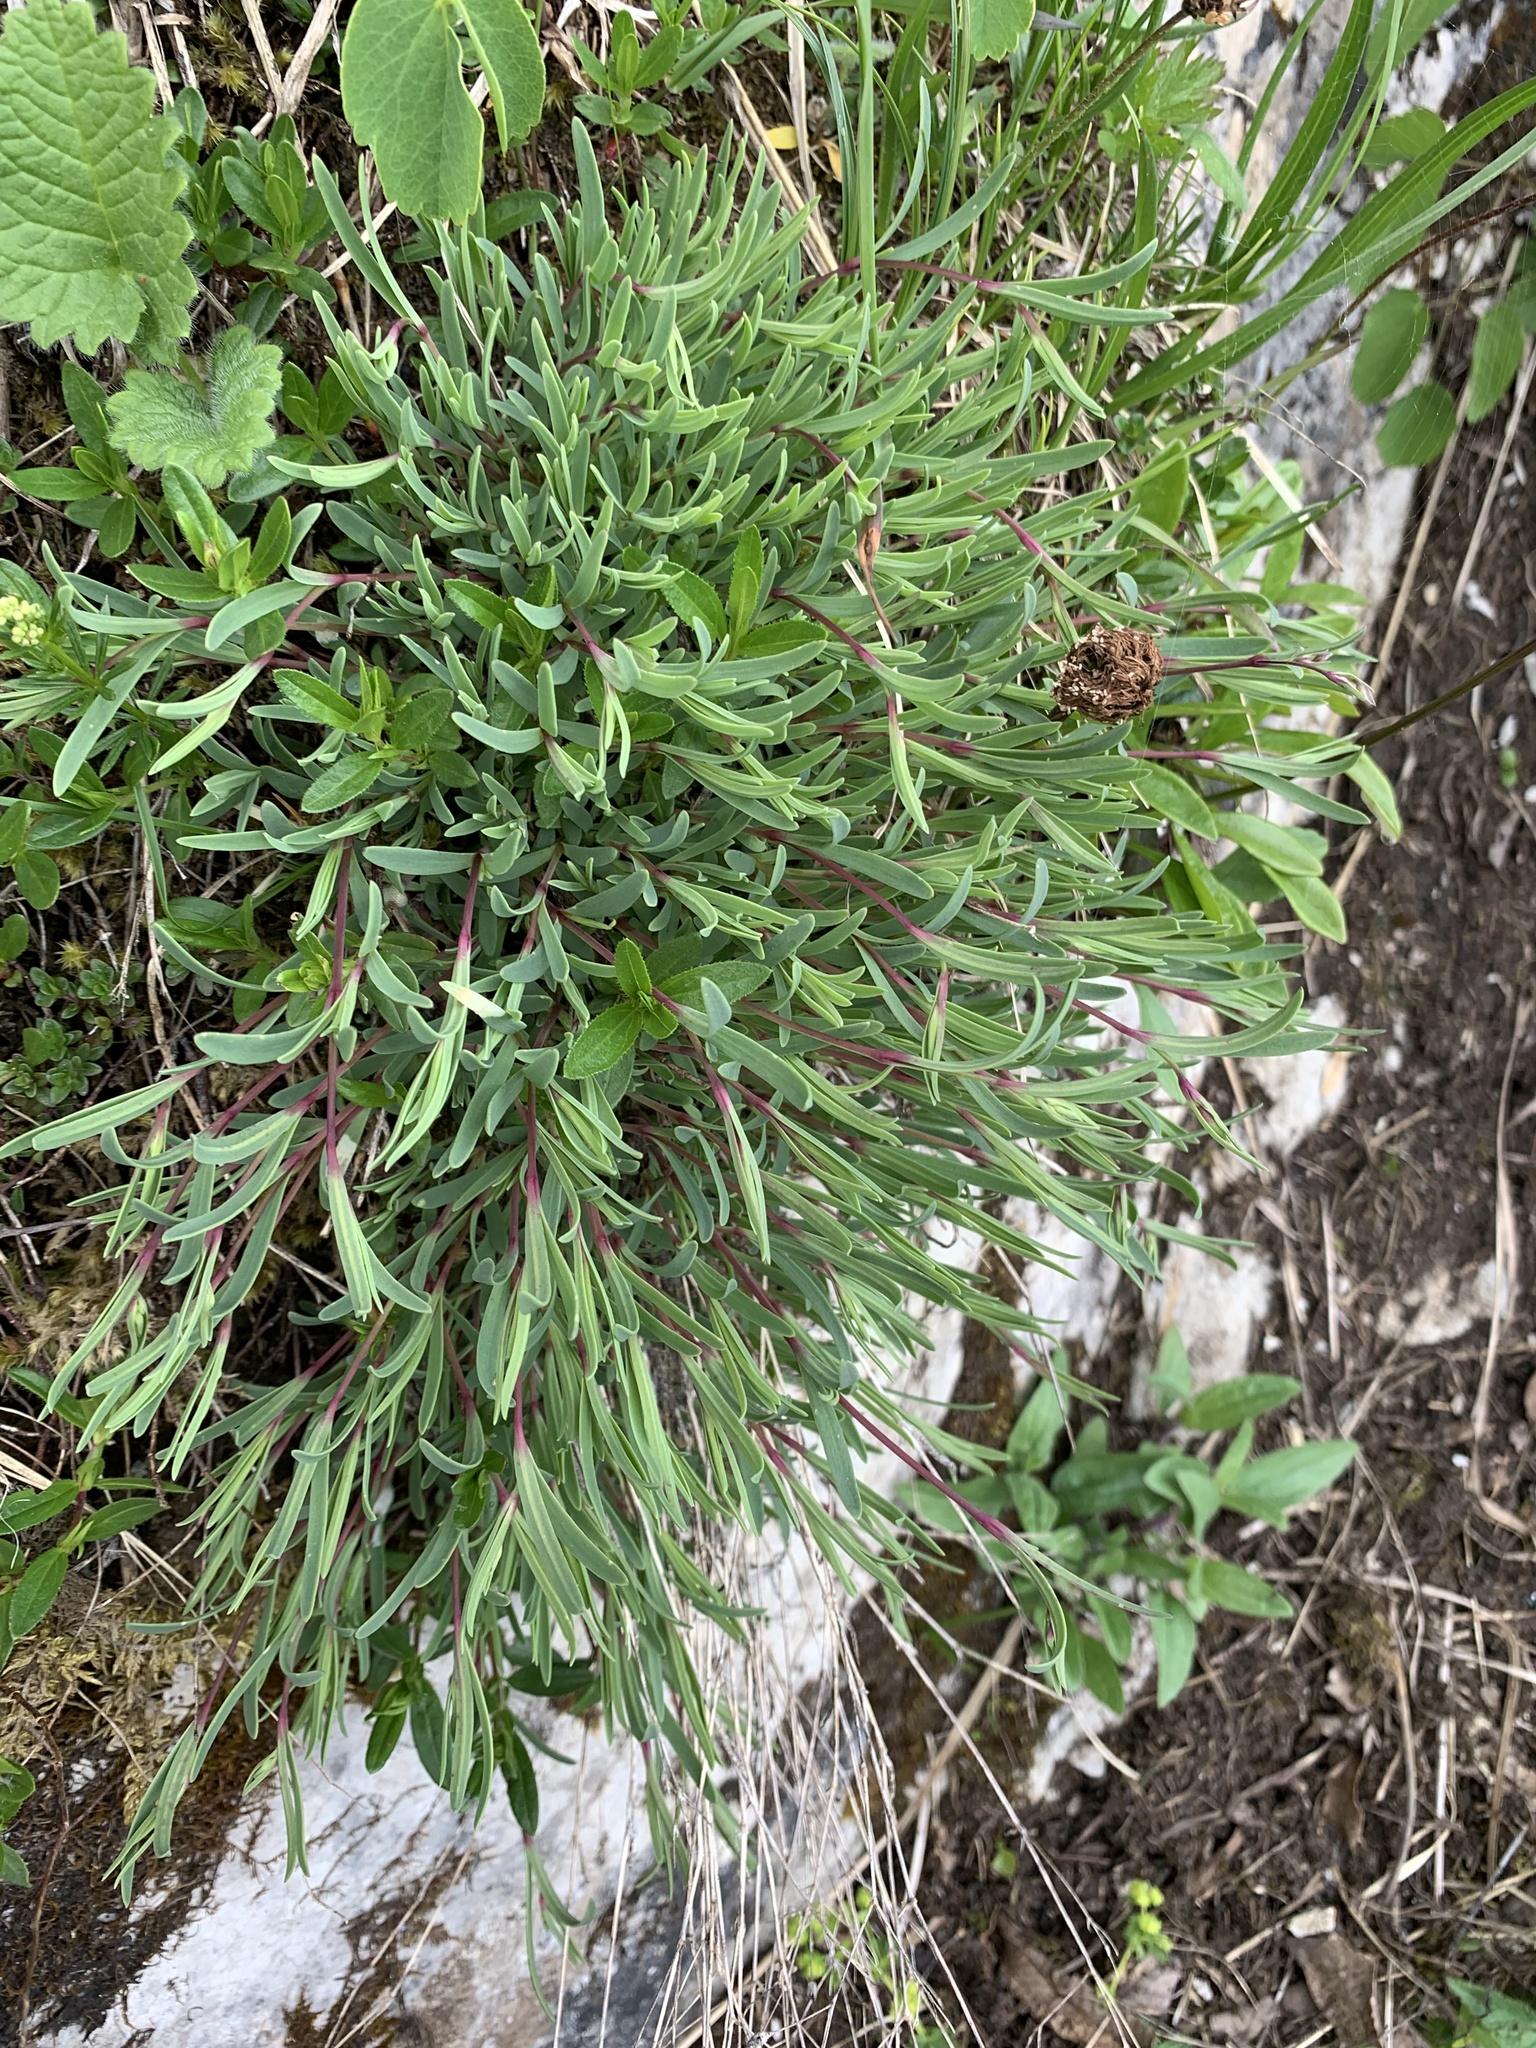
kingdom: Plantae
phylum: Tracheophyta
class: Magnoliopsida
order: Caryophyllales
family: Caryophyllaceae
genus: Gypsophila
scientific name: Gypsophila repens
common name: Creeping baby's-breath
